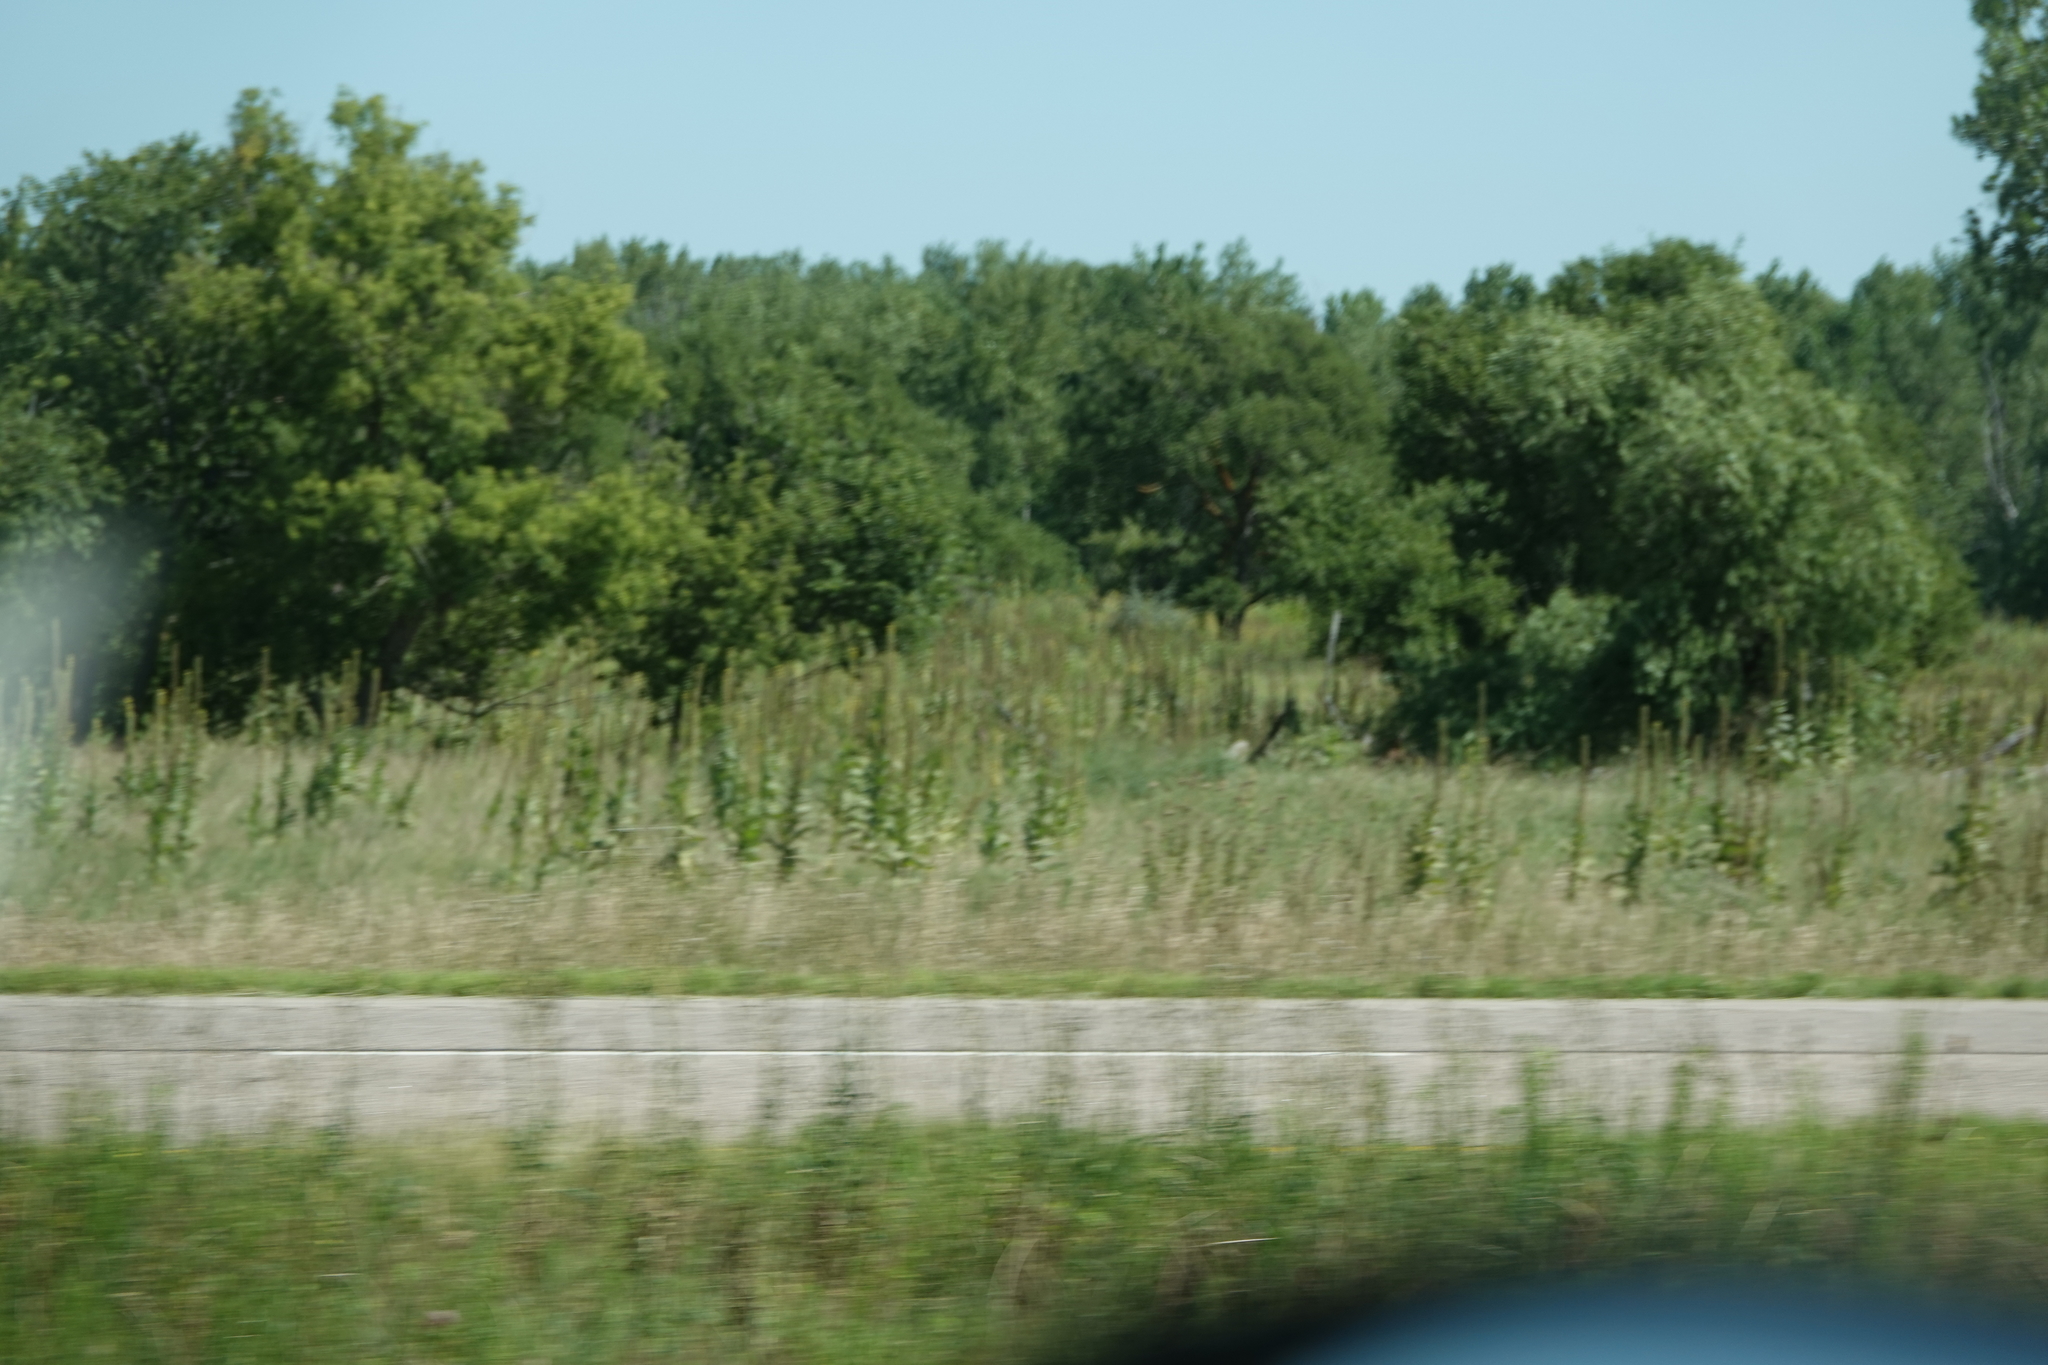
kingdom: Plantae
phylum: Tracheophyta
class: Magnoliopsida
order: Lamiales
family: Scrophulariaceae
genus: Verbascum
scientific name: Verbascum thapsus
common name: Common mullein
